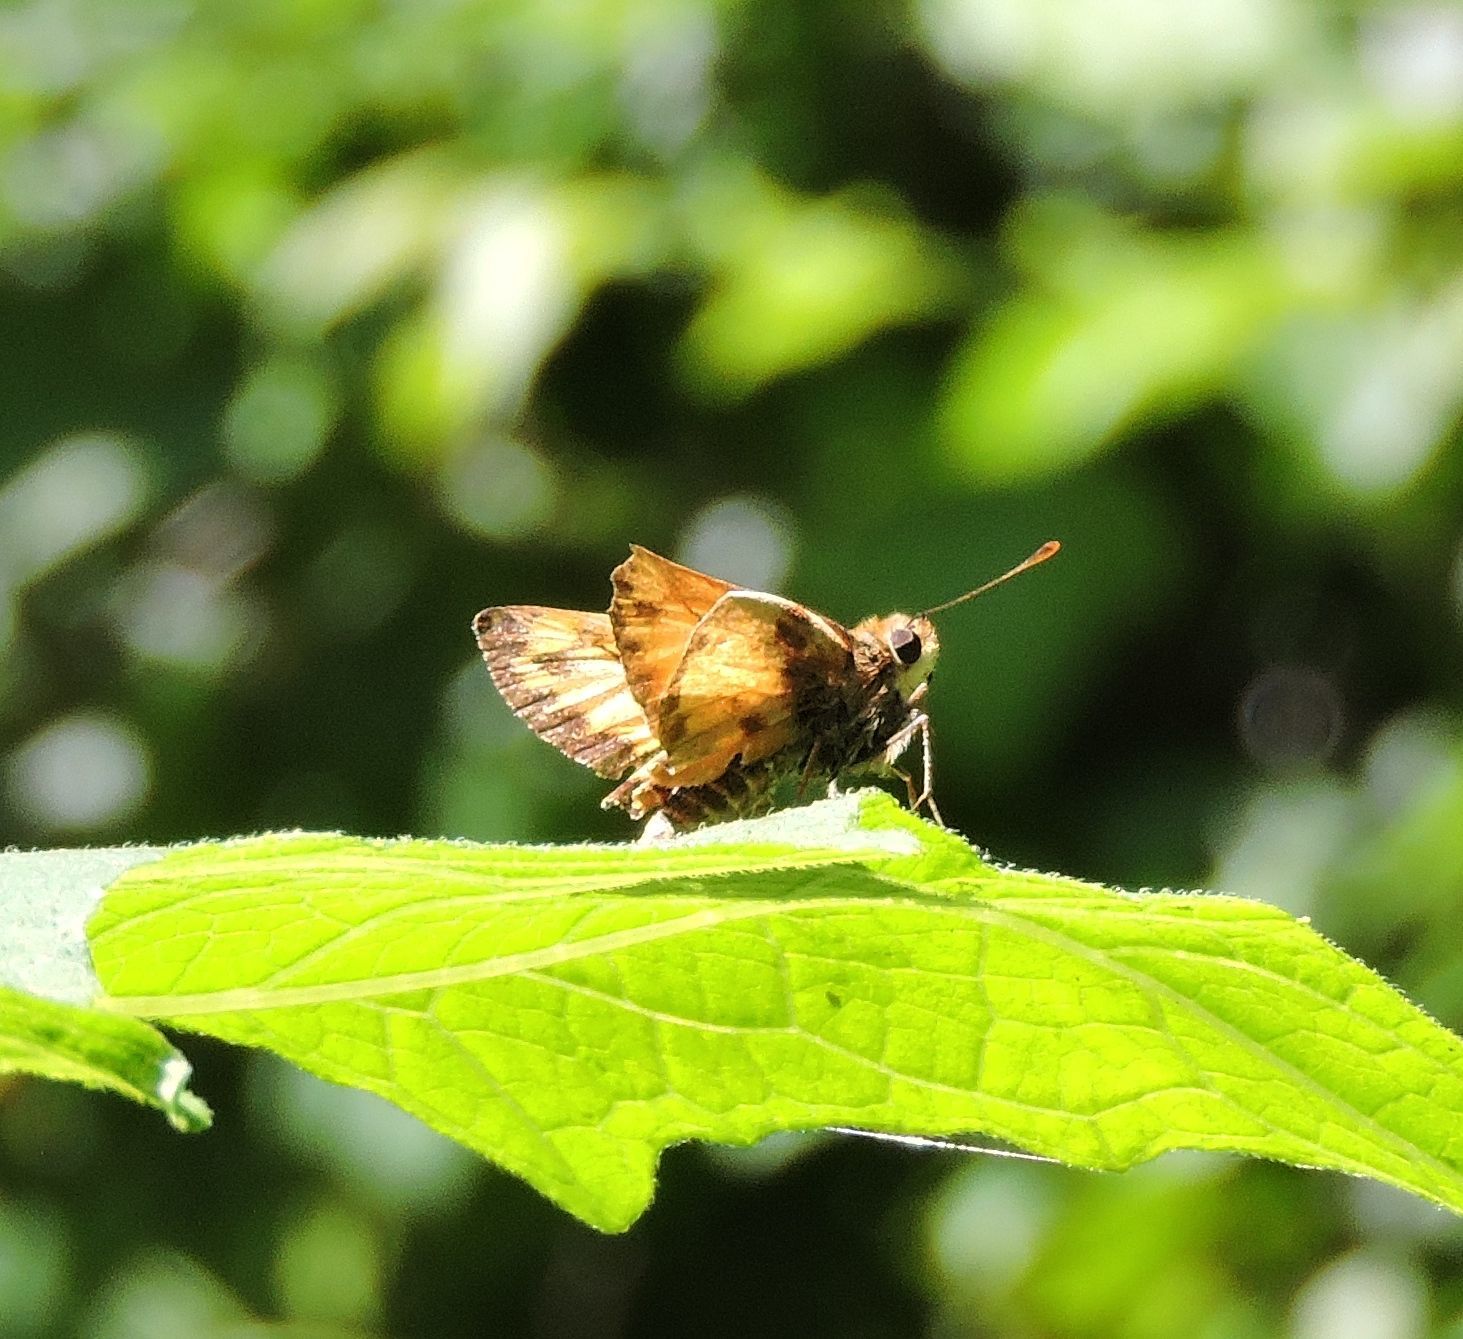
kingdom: Animalia
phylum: Arthropoda
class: Insecta
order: Lepidoptera
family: Hesperiidae
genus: Lon
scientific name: Lon zabulon
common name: Zabulon skipper
